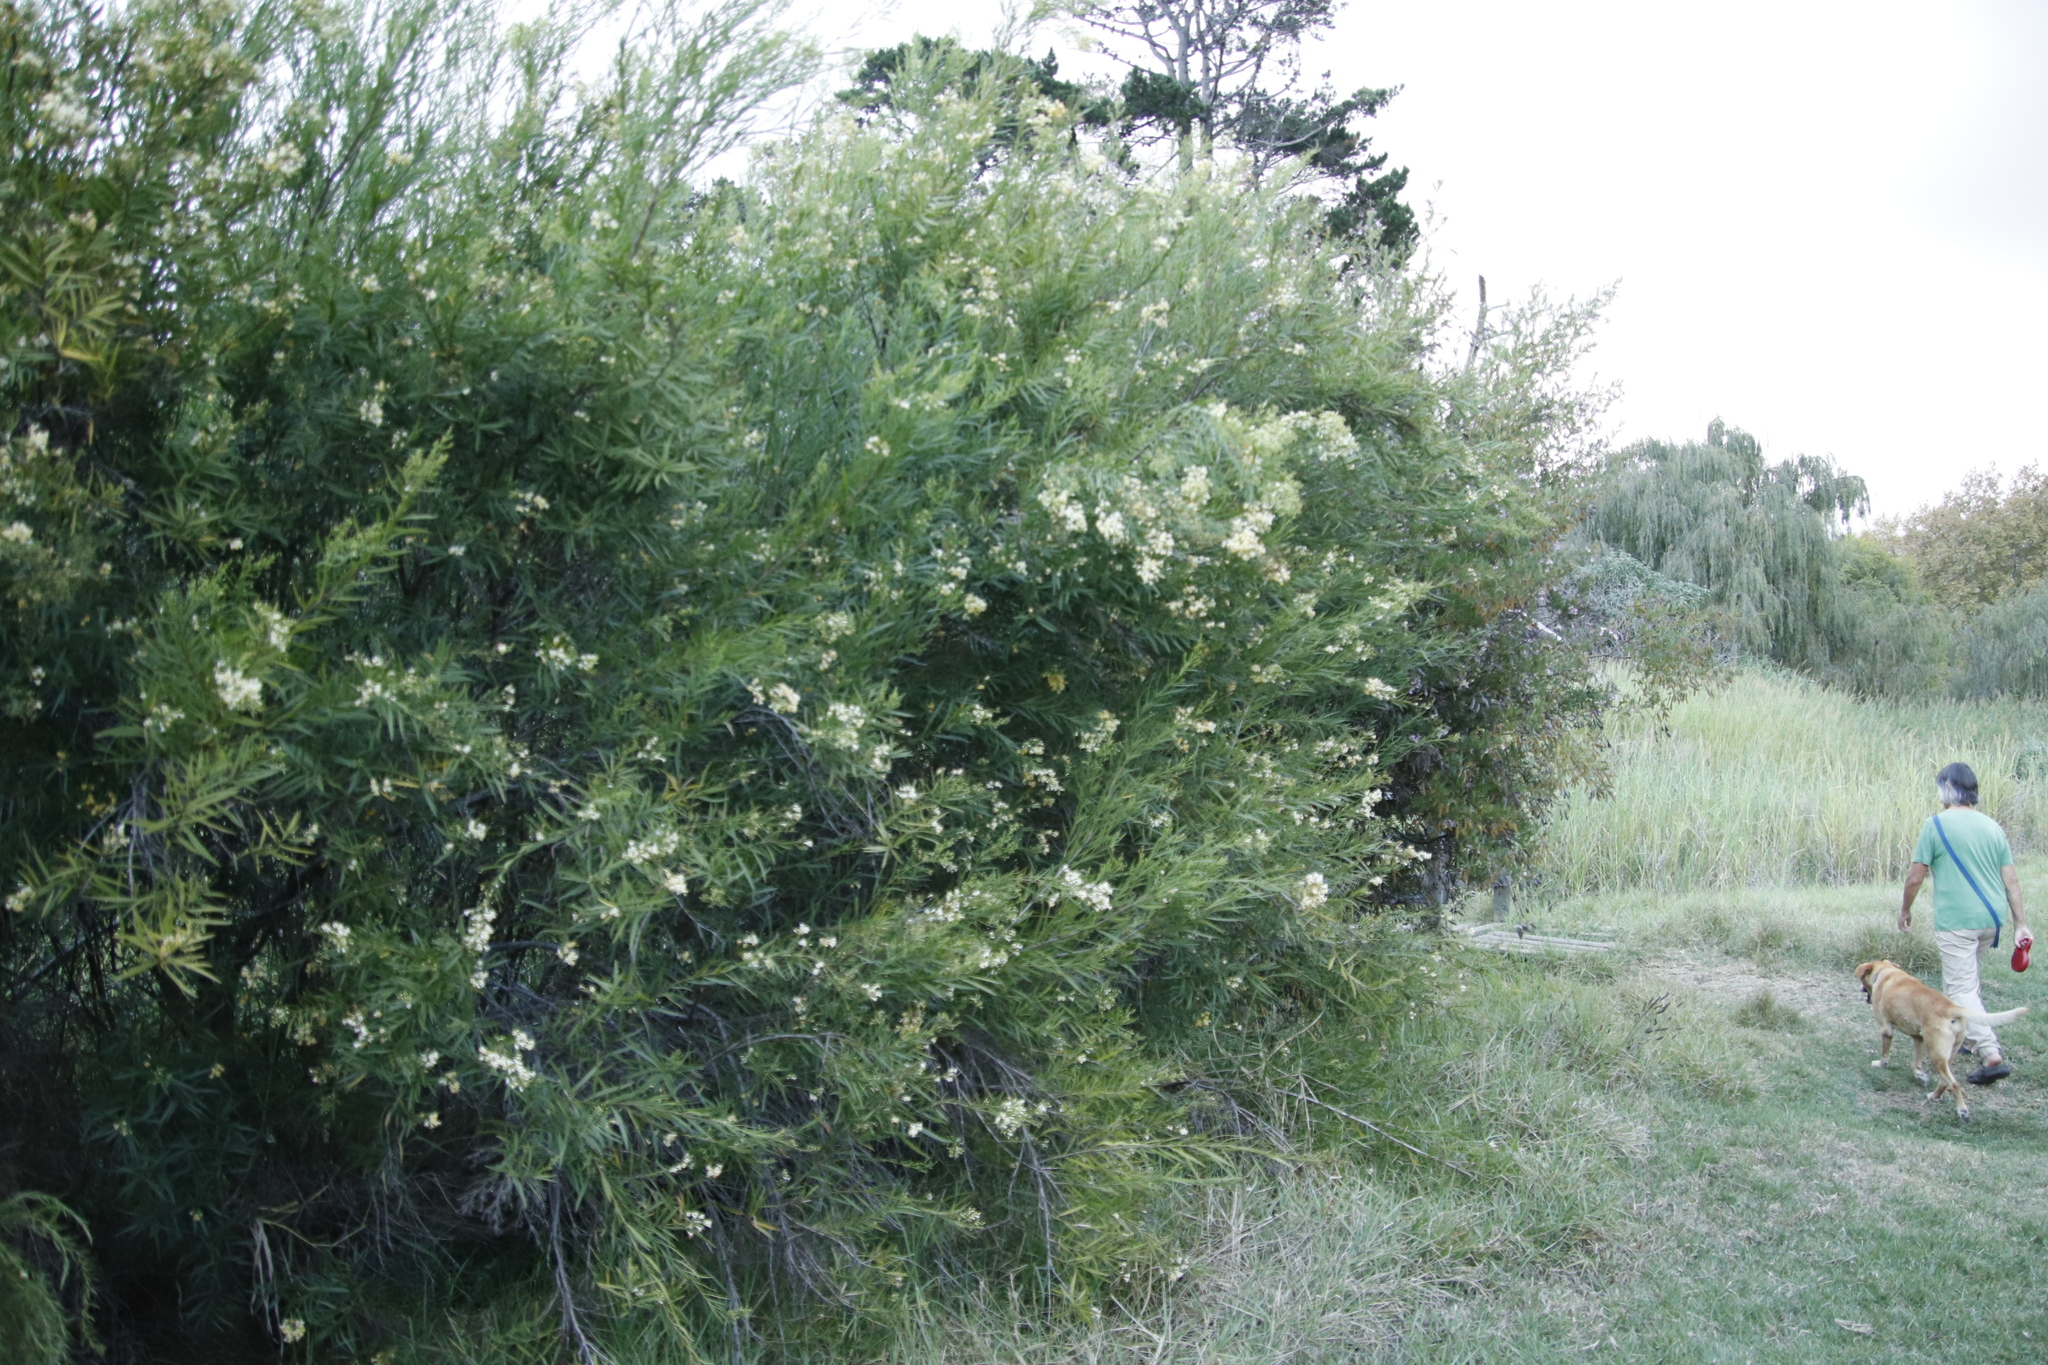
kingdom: Plantae
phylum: Tracheophyta
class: Magnoliopsida
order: Lamiales
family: Scrophulariaceae
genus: Freylinia
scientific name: Freylinia lanceolata
